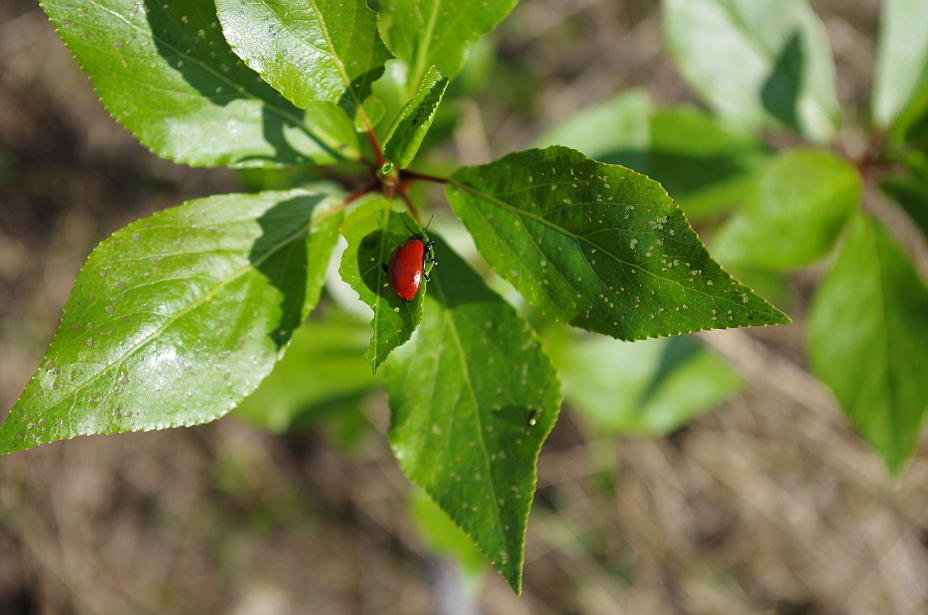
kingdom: Plantae
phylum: Tracheophyta
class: Magnoliopsida
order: Malpighiales
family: Salicaceae
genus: Populus
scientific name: Populus
